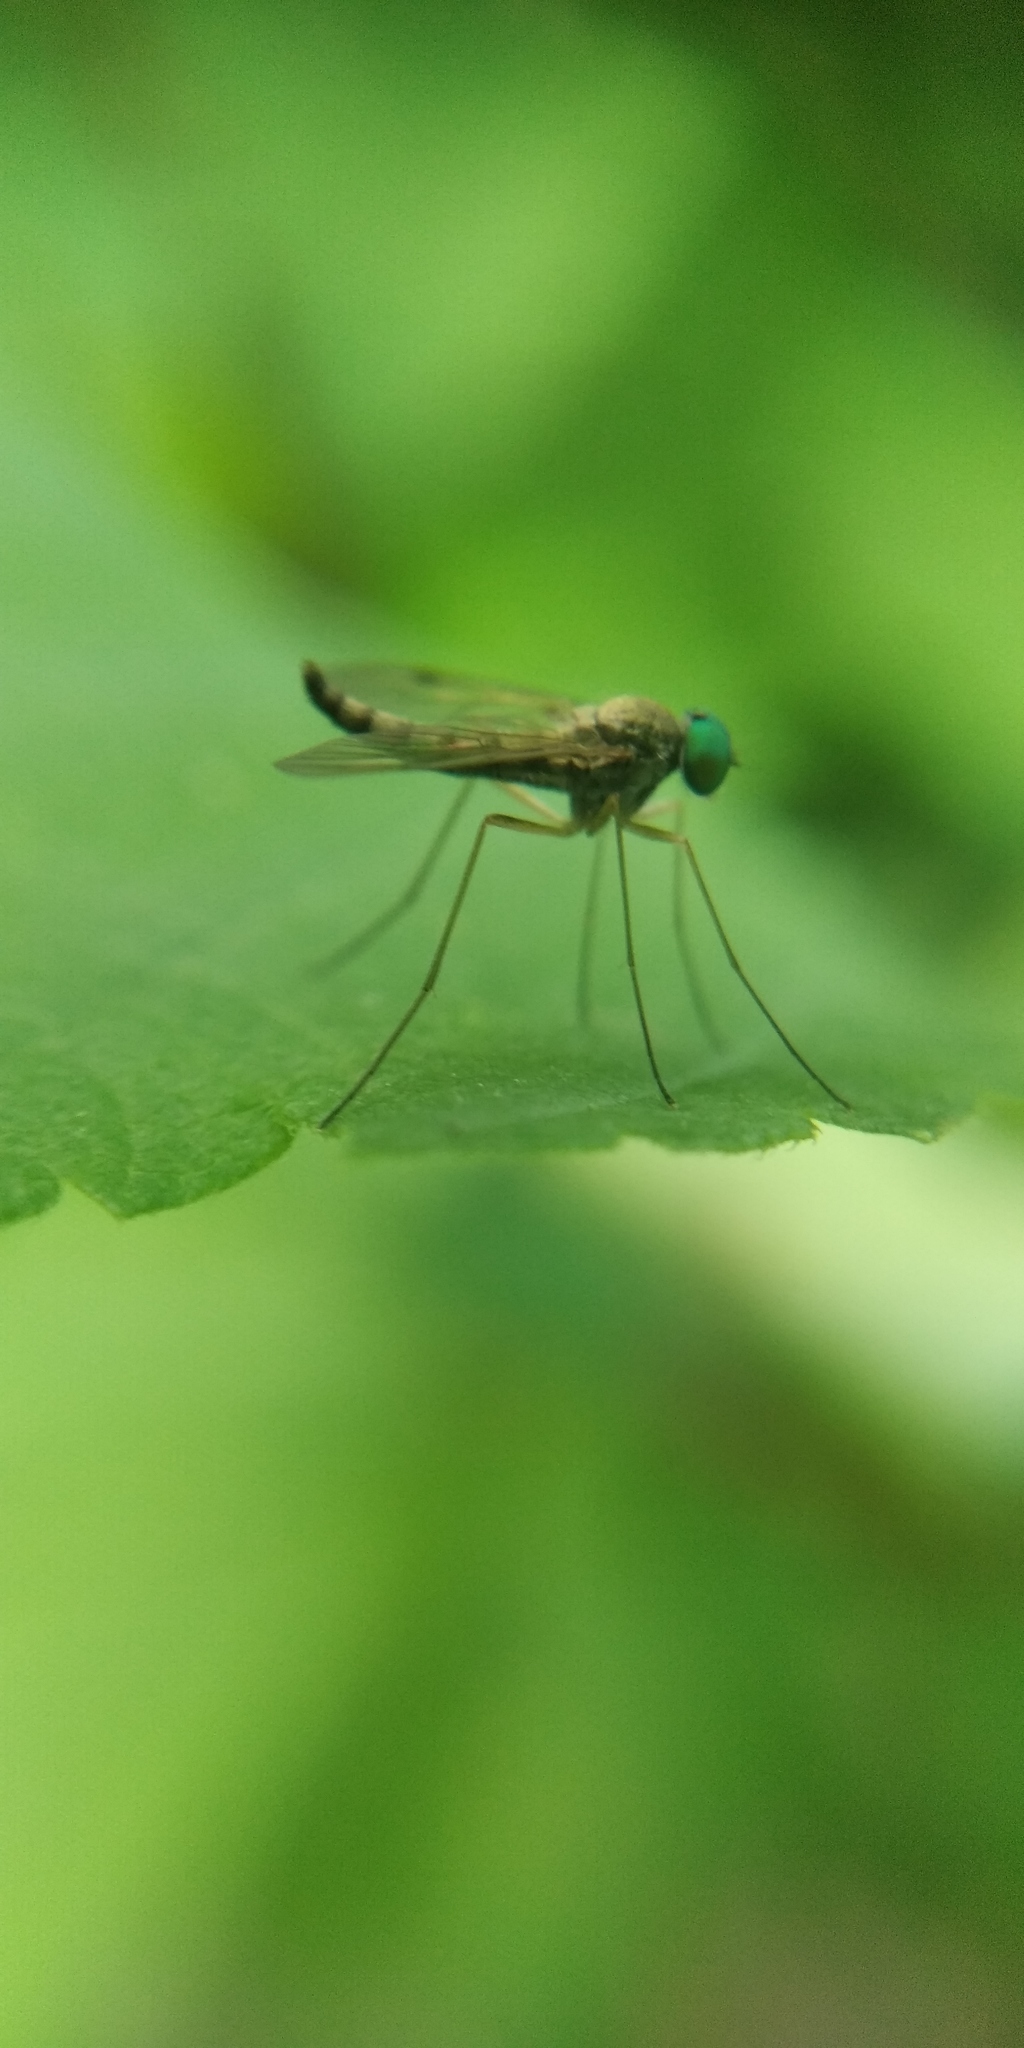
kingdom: Animalia
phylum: Arthropoda
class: Insecta
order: Diptera
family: Rhagionidae
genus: Chrysopilus
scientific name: Chrysopilus asiliformis
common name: Little snipefly
